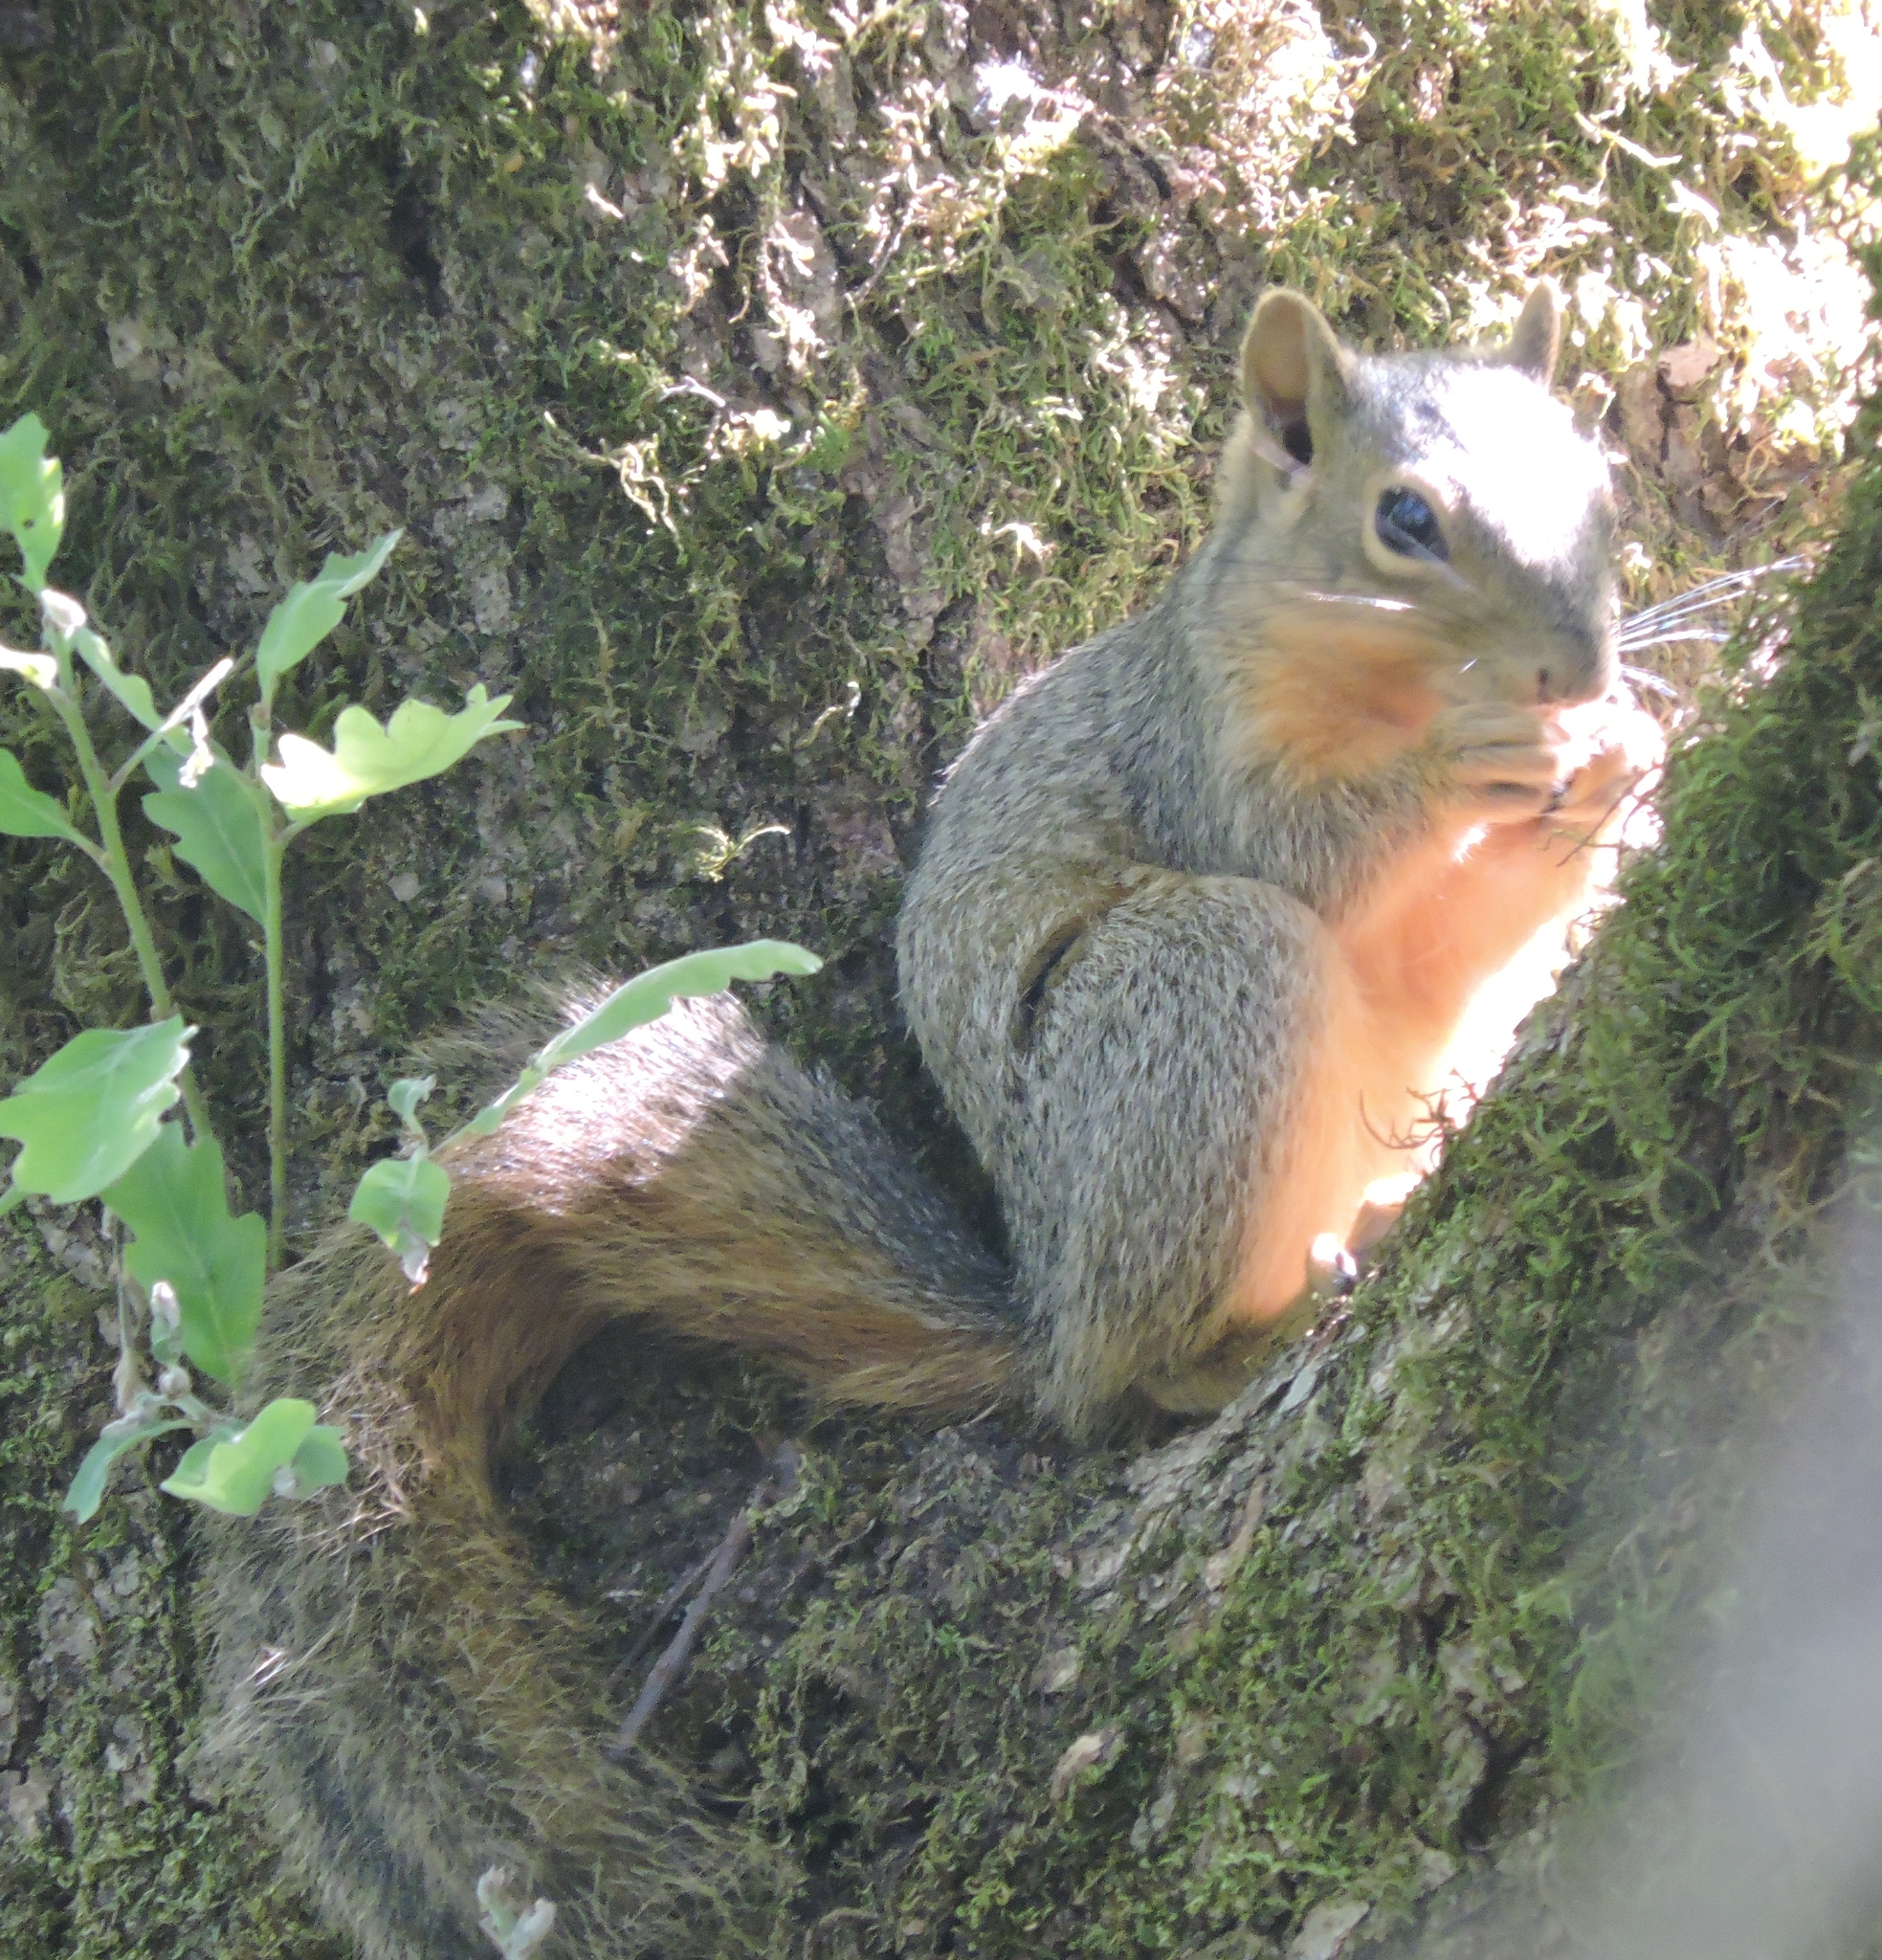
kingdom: Animalia
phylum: Chordata
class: Mammalia
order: Rodentia
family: Sciuridae
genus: Sciurus
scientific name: Sciurus niger
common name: Fox squirrel
